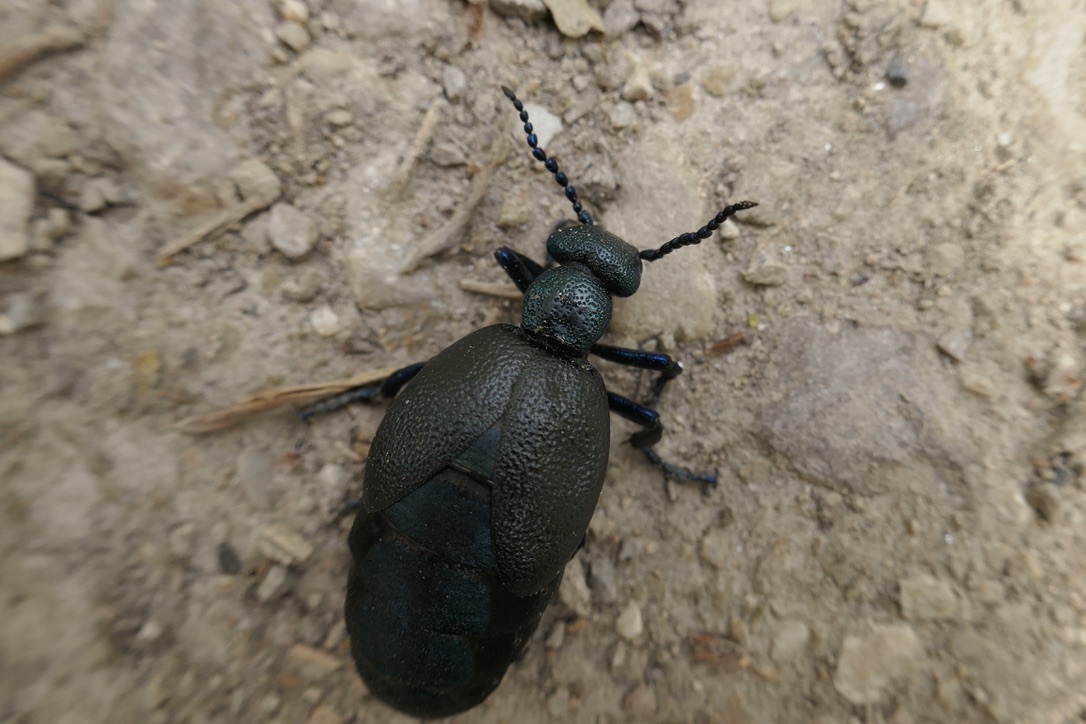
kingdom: Animalia
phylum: Arthropoda
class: Insecta
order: Coleoptera
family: Meloidae
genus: Meloe
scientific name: Meloe proscarabaeus
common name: Black oil-beetle
